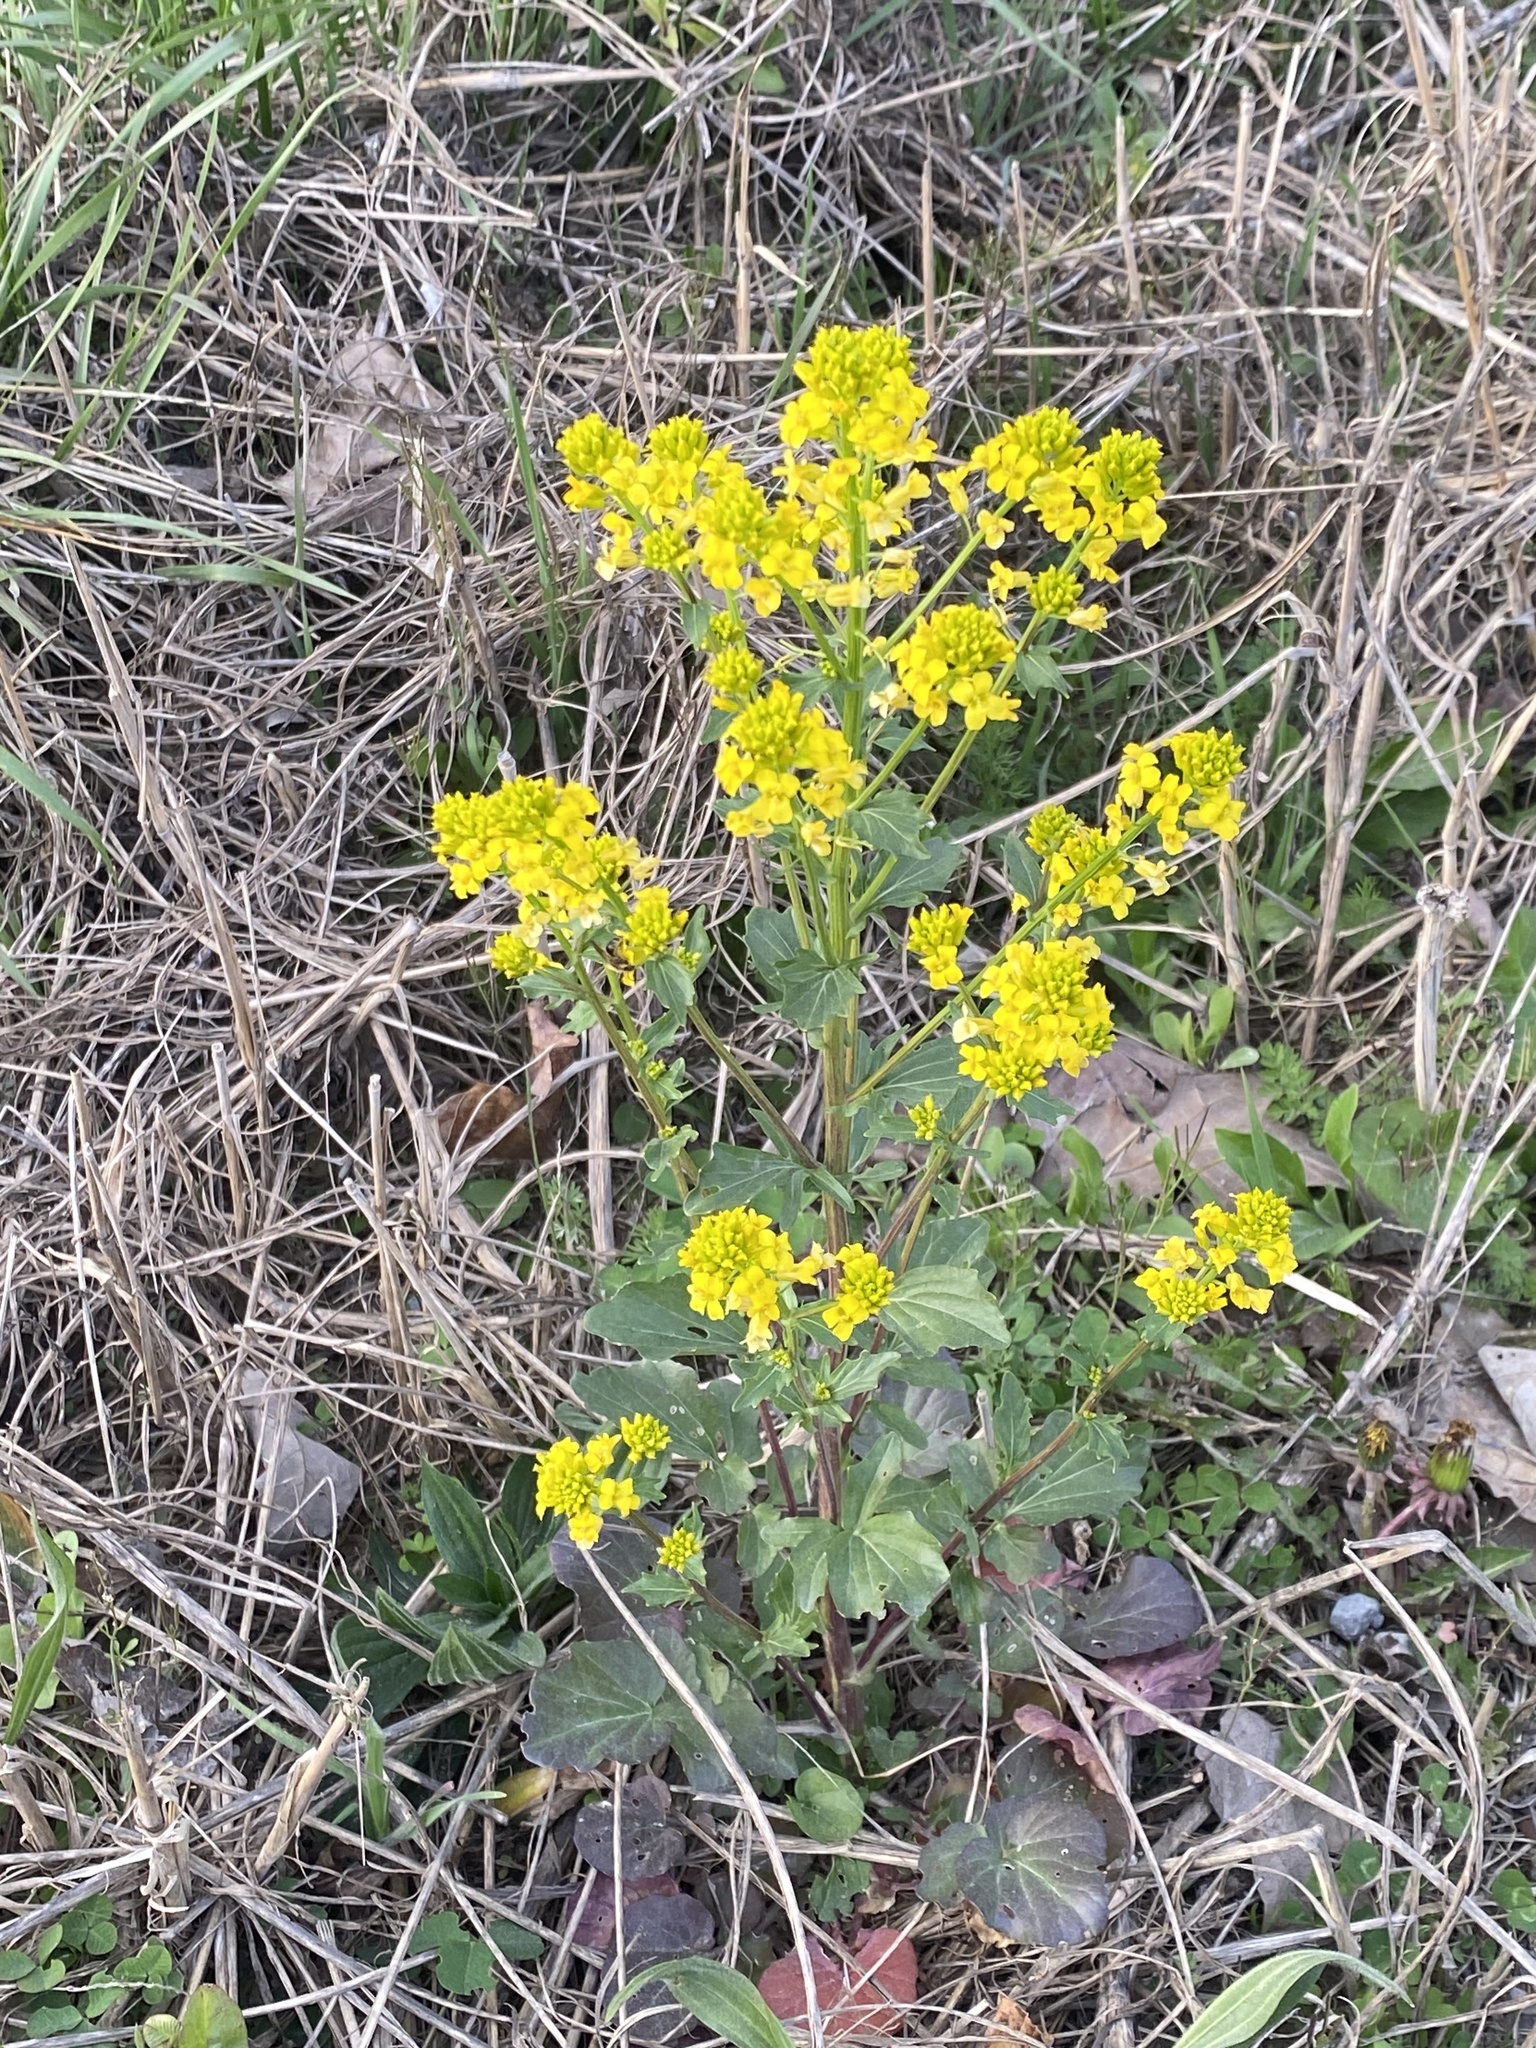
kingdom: Plantae
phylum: Tracheophyta
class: Magnoliopsida
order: Brassicales
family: Brassicaceae
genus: Barbarea
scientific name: Barbarea vulgaris
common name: Cressy-greens
